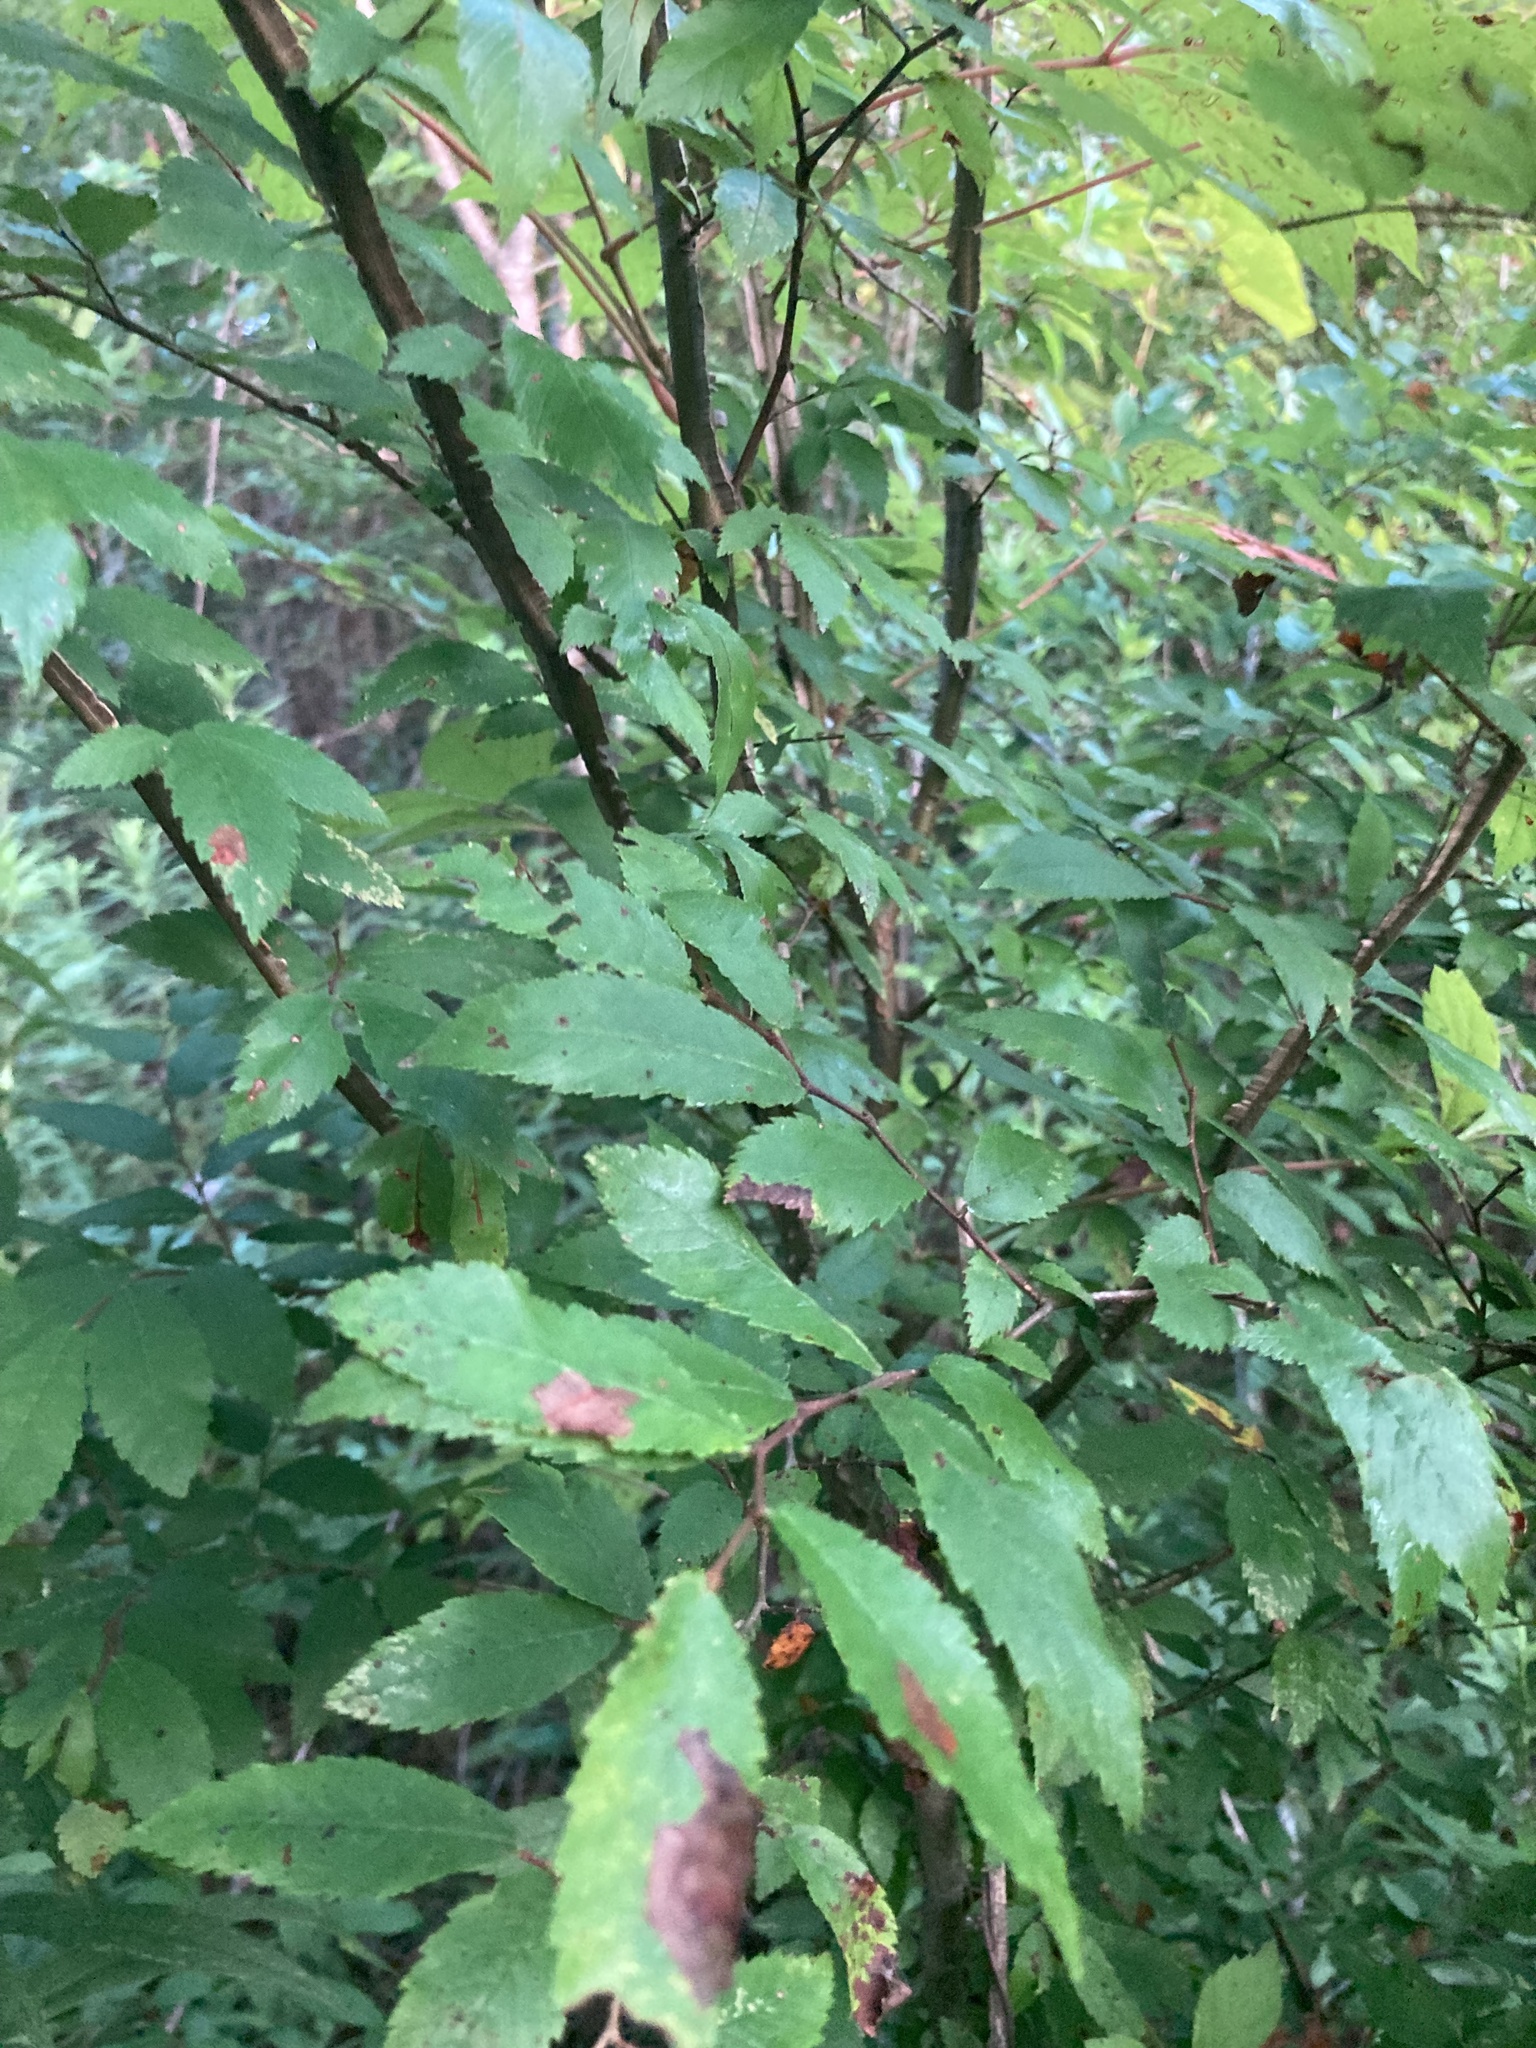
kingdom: Plantae
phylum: Tracheophyta
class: Magnoliopsida
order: Rosales
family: Ulmaceae
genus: Ulmus
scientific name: Ulmus alata
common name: Winged elm
